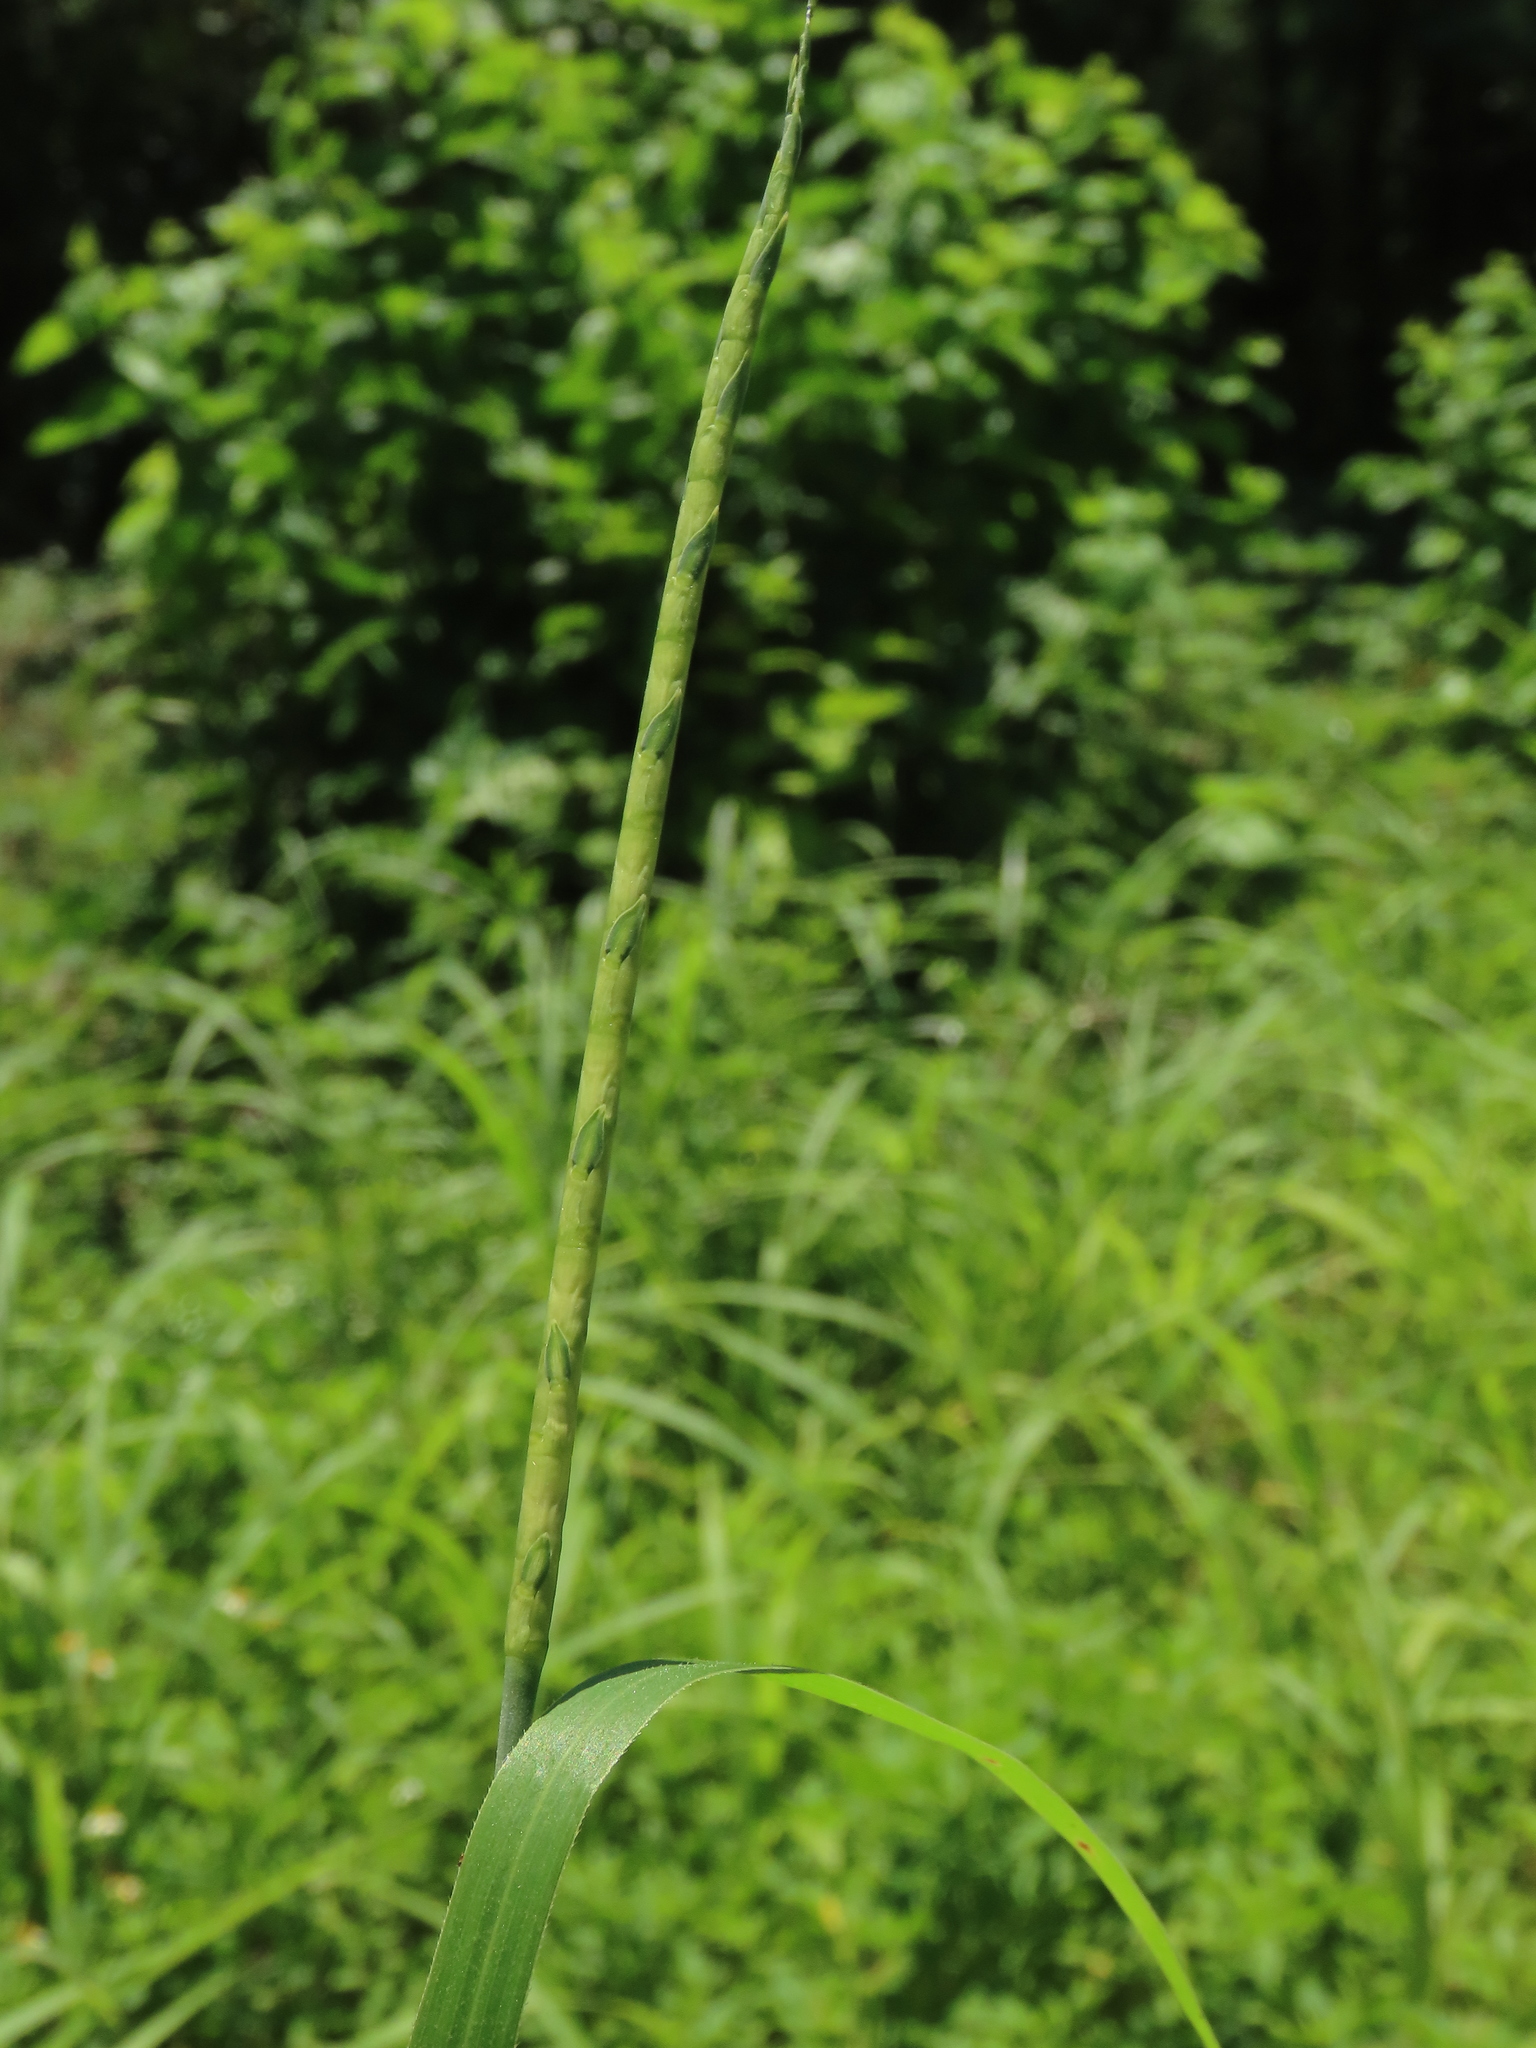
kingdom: Plantae
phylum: Tracheophyta
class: Liliopsida
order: Poales
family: Poaceae
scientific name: Poaceae
